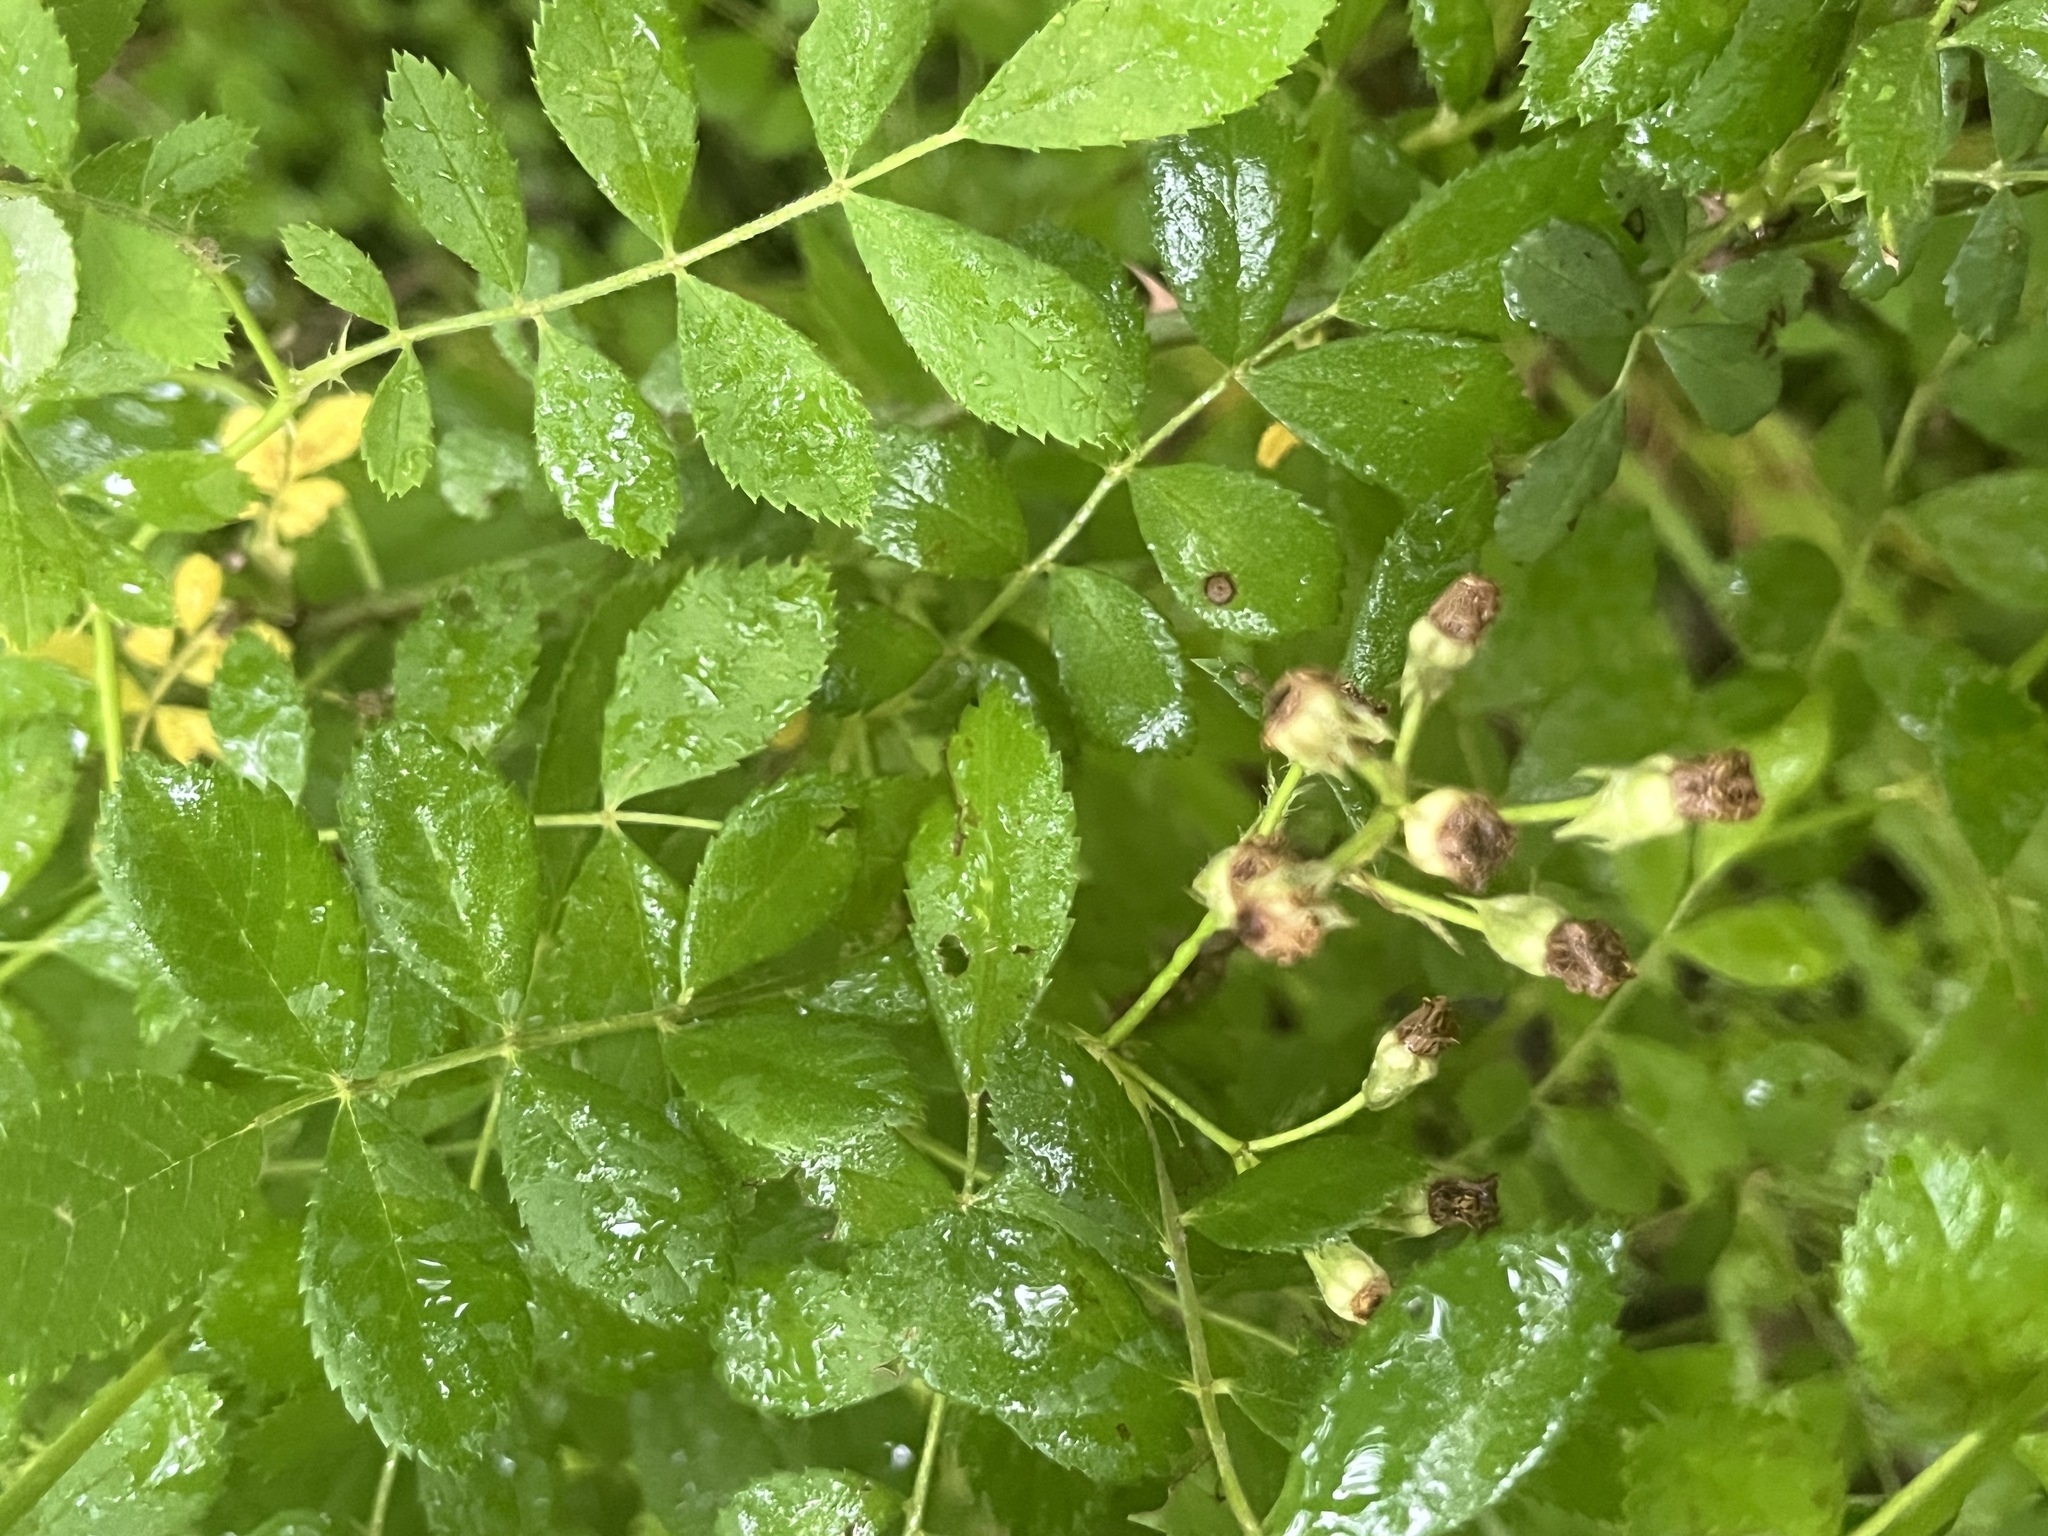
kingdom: Plantae
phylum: Tracheophyta
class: Magnoliopsida
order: Rosales
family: Rosaceae
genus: Rosa
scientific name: Rosa multiflora
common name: Multiflora rose
